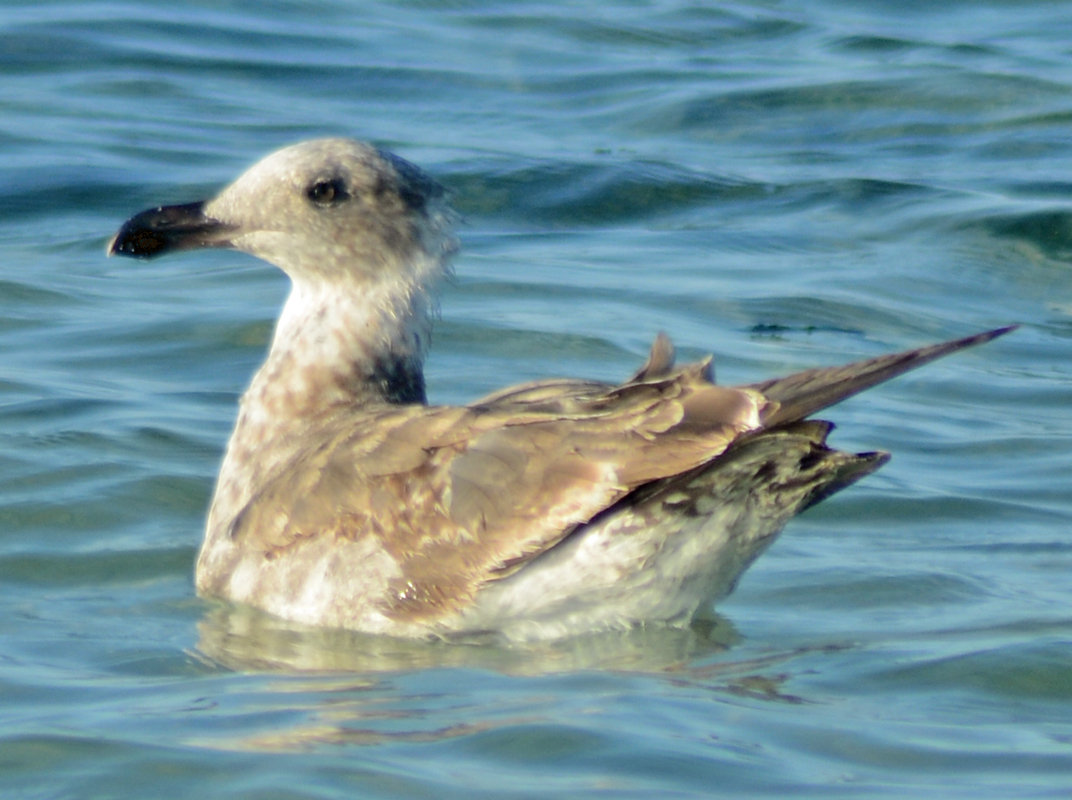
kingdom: Animalia
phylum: Chordata
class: Aves
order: Charadriiformes
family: Laridae
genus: Larus
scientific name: Larus livens
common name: Yellow-footed gull
